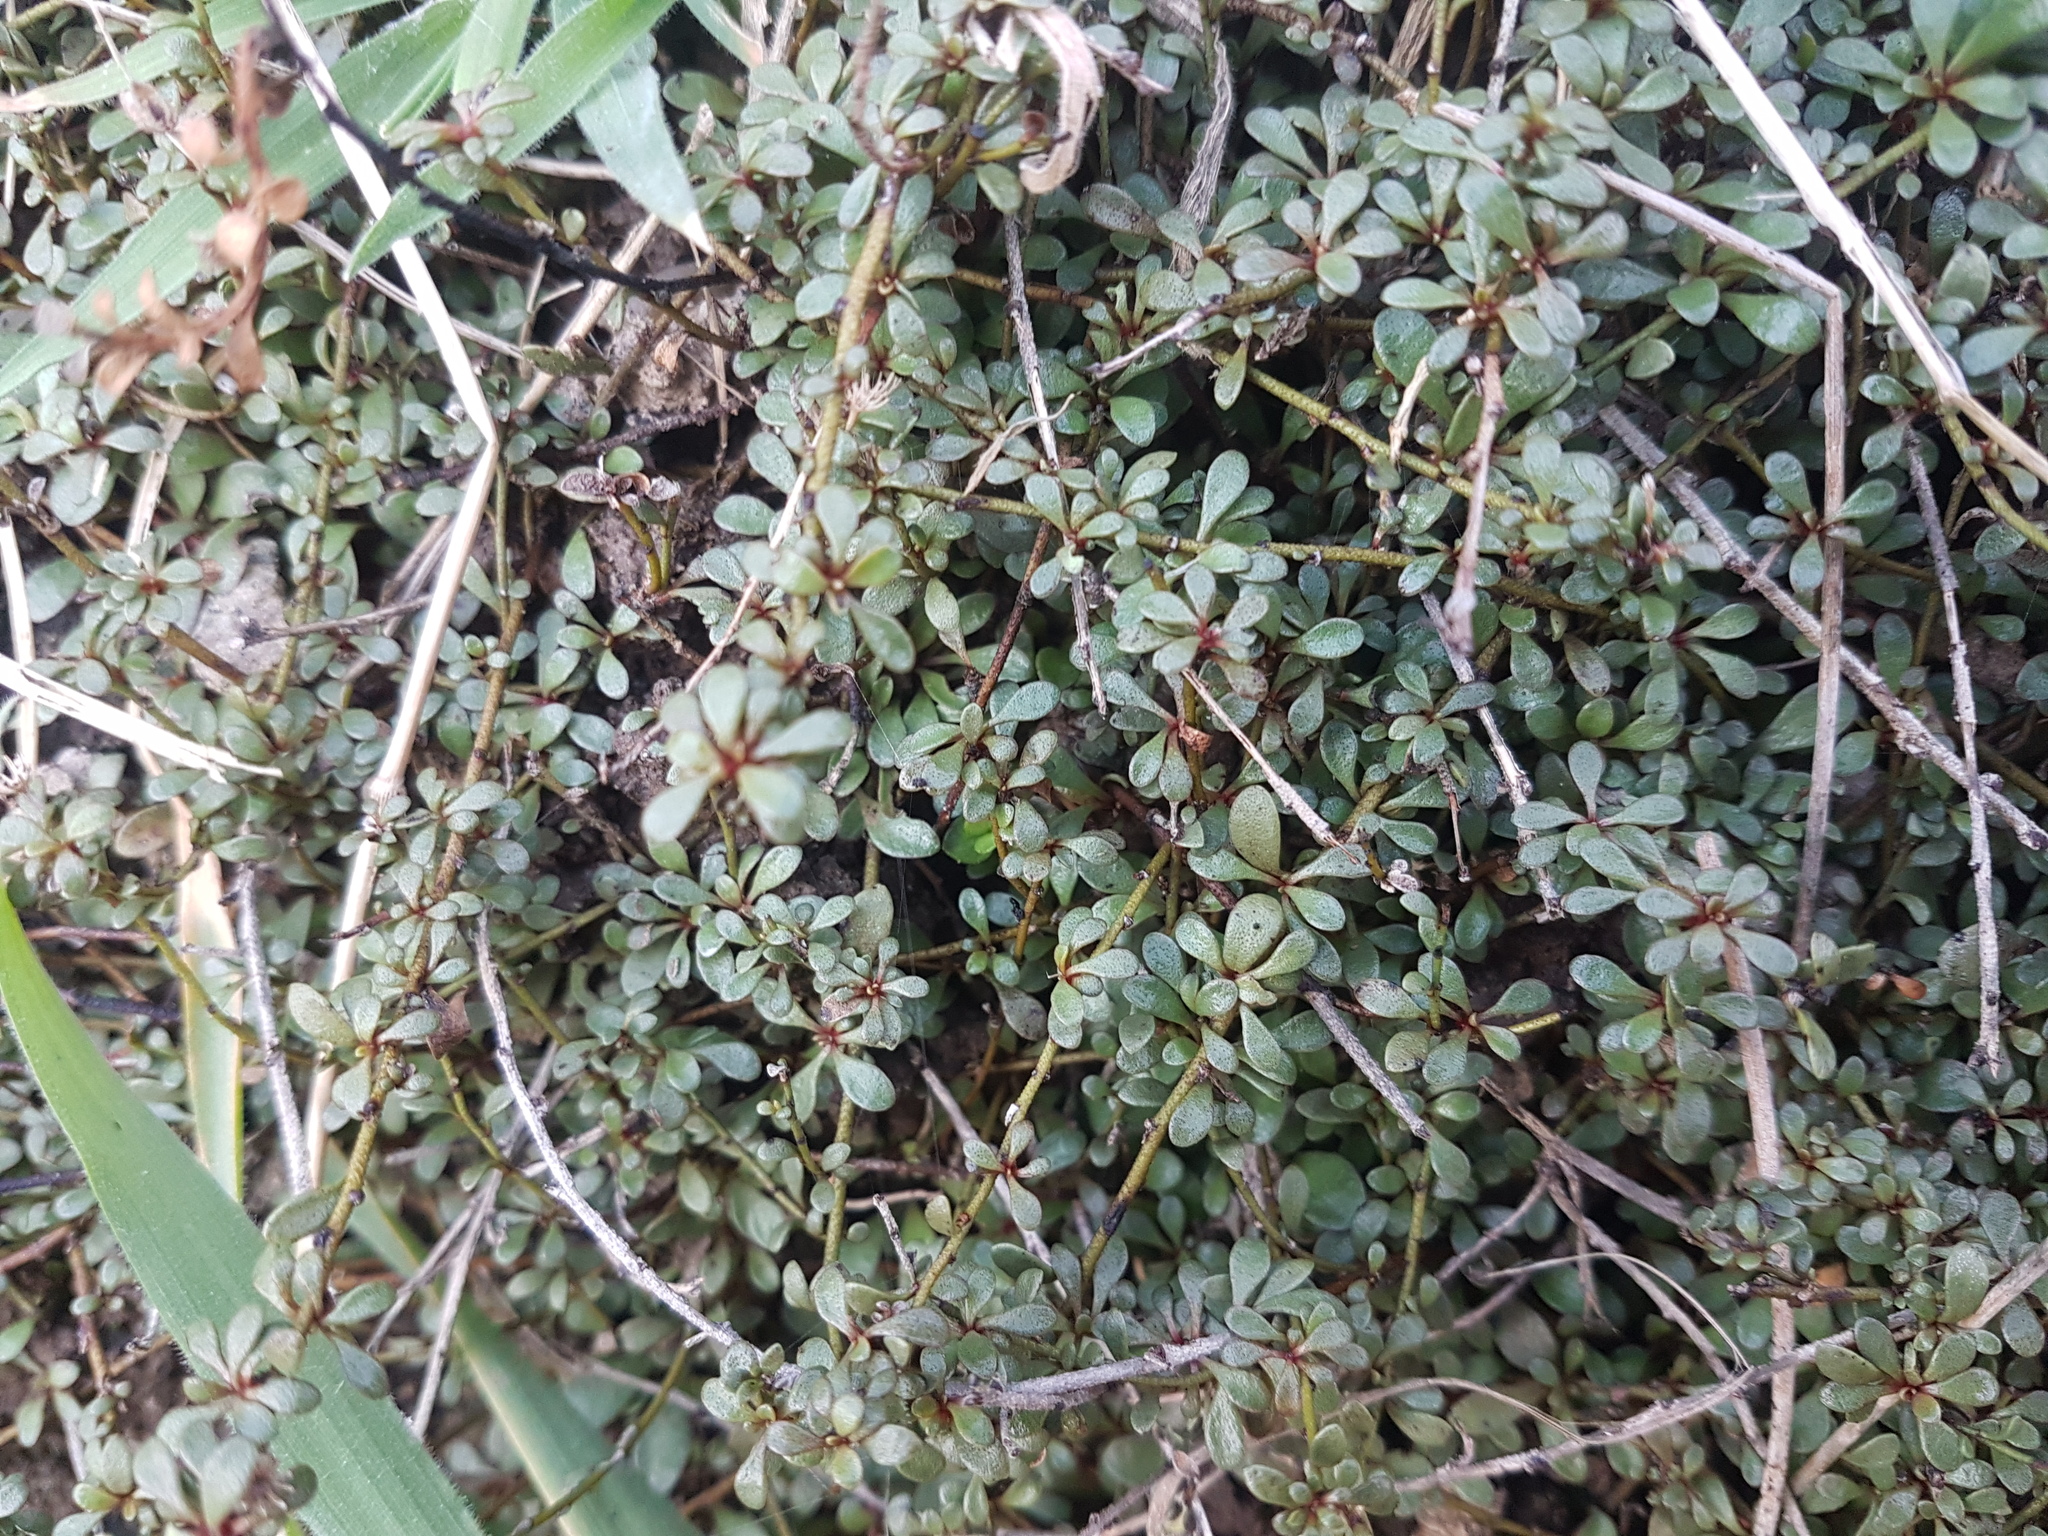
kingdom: Plantae
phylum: Tracheophyta
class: Magnoliopsida
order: Ericales
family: Primulaceae
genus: Samolus
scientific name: Samolus repens
